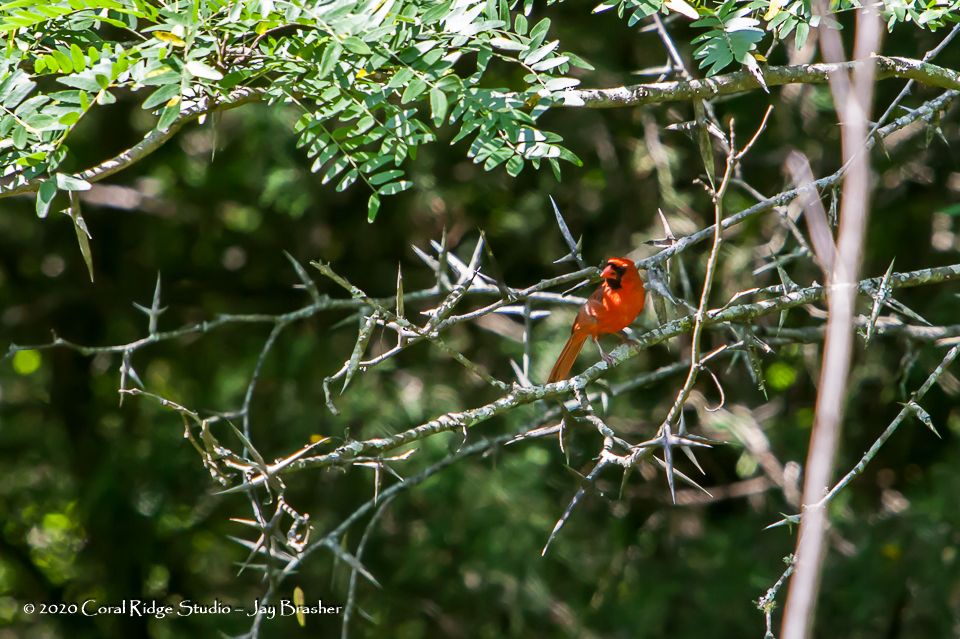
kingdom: Animalia
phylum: Chordata
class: Aves
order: Passeriformes
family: Cardinalidae
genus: Cardinalis
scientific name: Cardinalis cardinalis
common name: Northern cardinal
